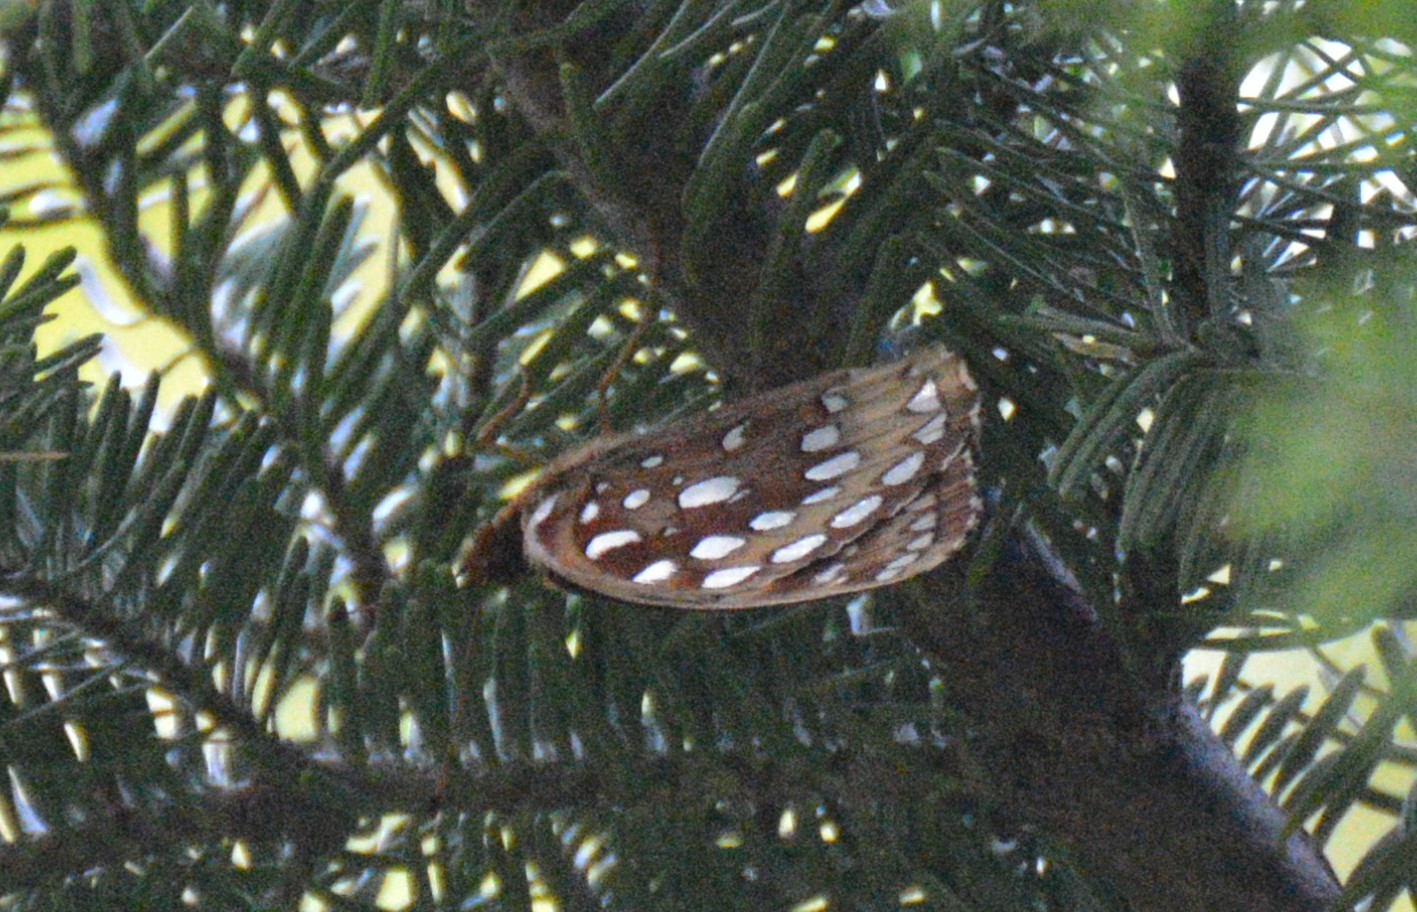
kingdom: Animalia
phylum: Arthropoda
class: Insecta
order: Lepidoptera
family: Nymphalidae
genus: Speyeria
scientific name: Speyeria cybele
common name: Great spangled fritillary
